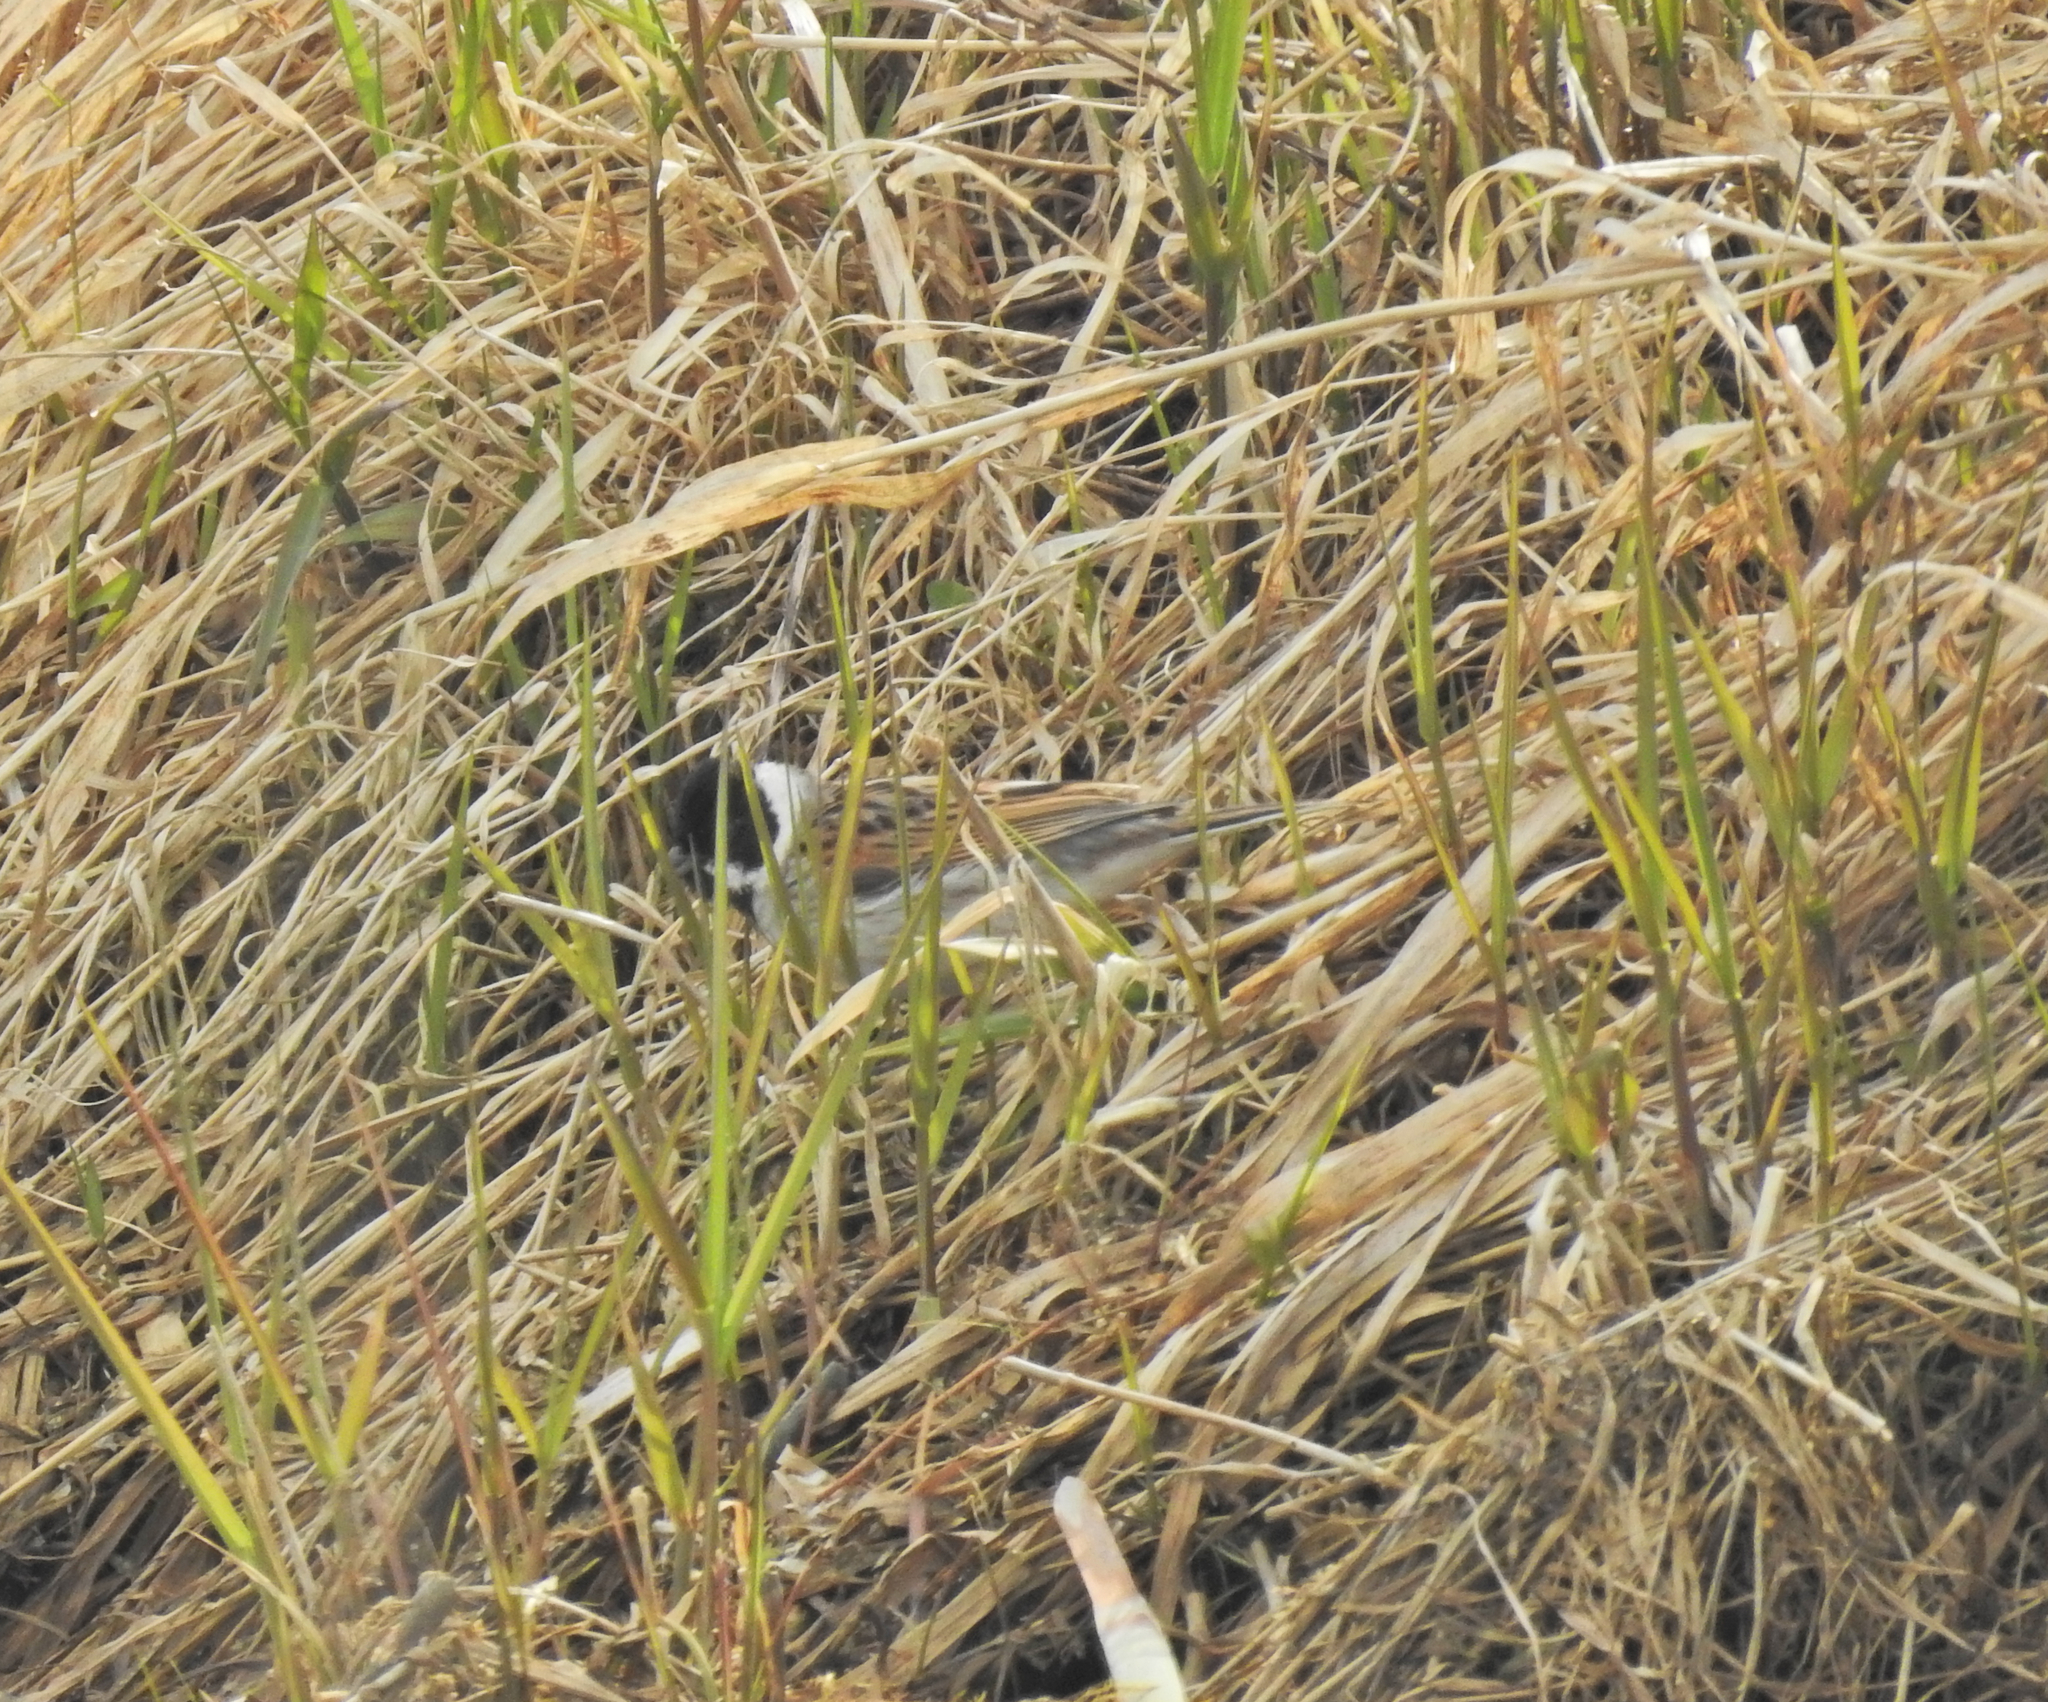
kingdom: Animalia
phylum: Chordata
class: Aves
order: Passeriformes
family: Emberizidae
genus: Emberiza
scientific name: Emberiza schoeniclus
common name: Reed bunting
